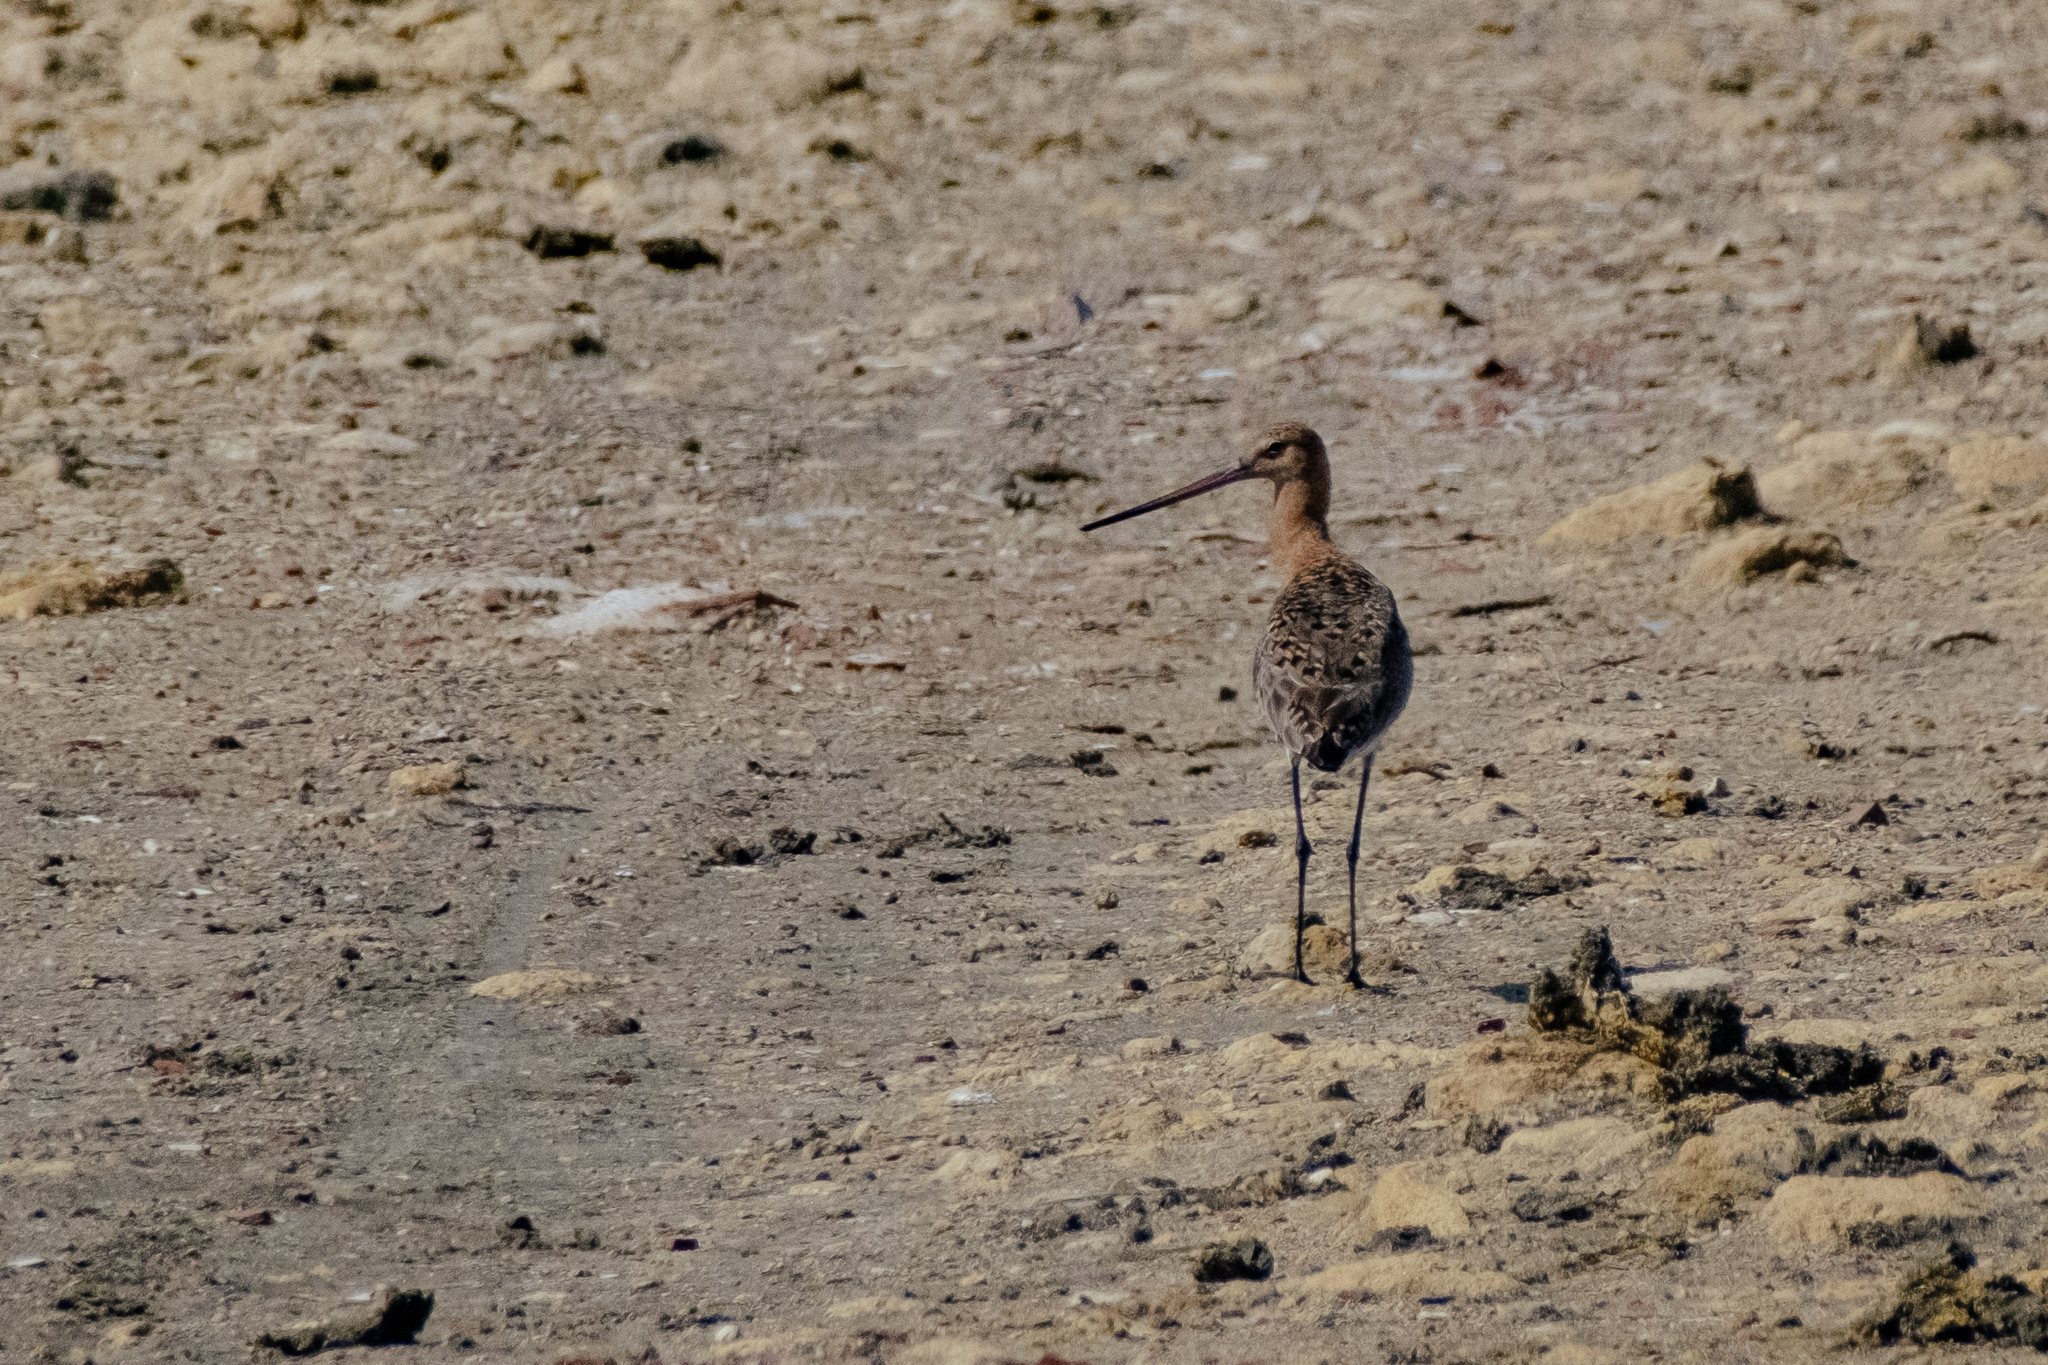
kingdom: Animalia
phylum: Chordata
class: Aves
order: Charadriiformes
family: Scolopacidae
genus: Limosa
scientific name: Limosa limosa
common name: Black-tailed godwit
